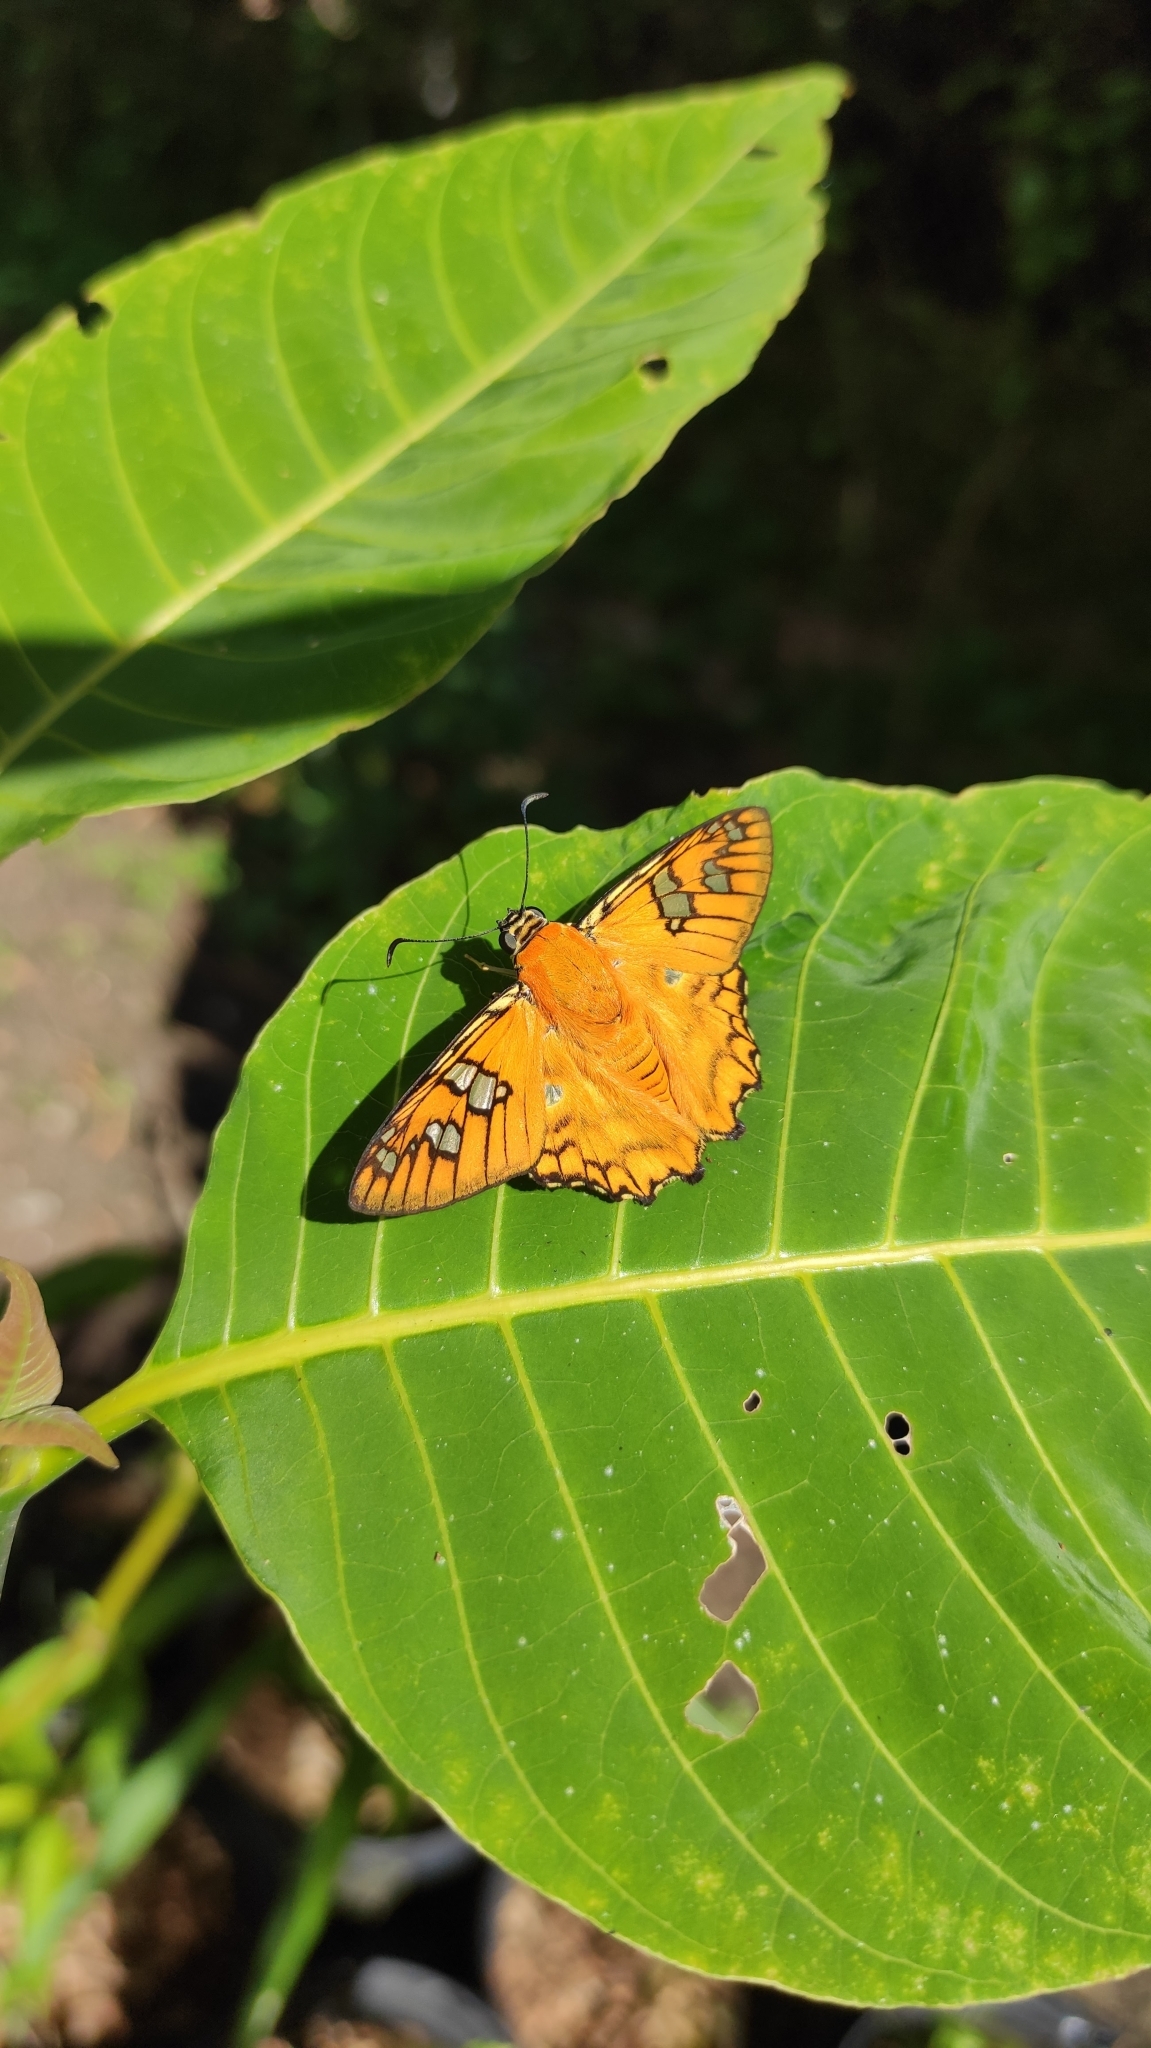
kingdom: Animalia
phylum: Arthropoda
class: Insecta
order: Lepidoptera
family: Hesperiidae
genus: Myscelus
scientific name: Myscelus amystis
